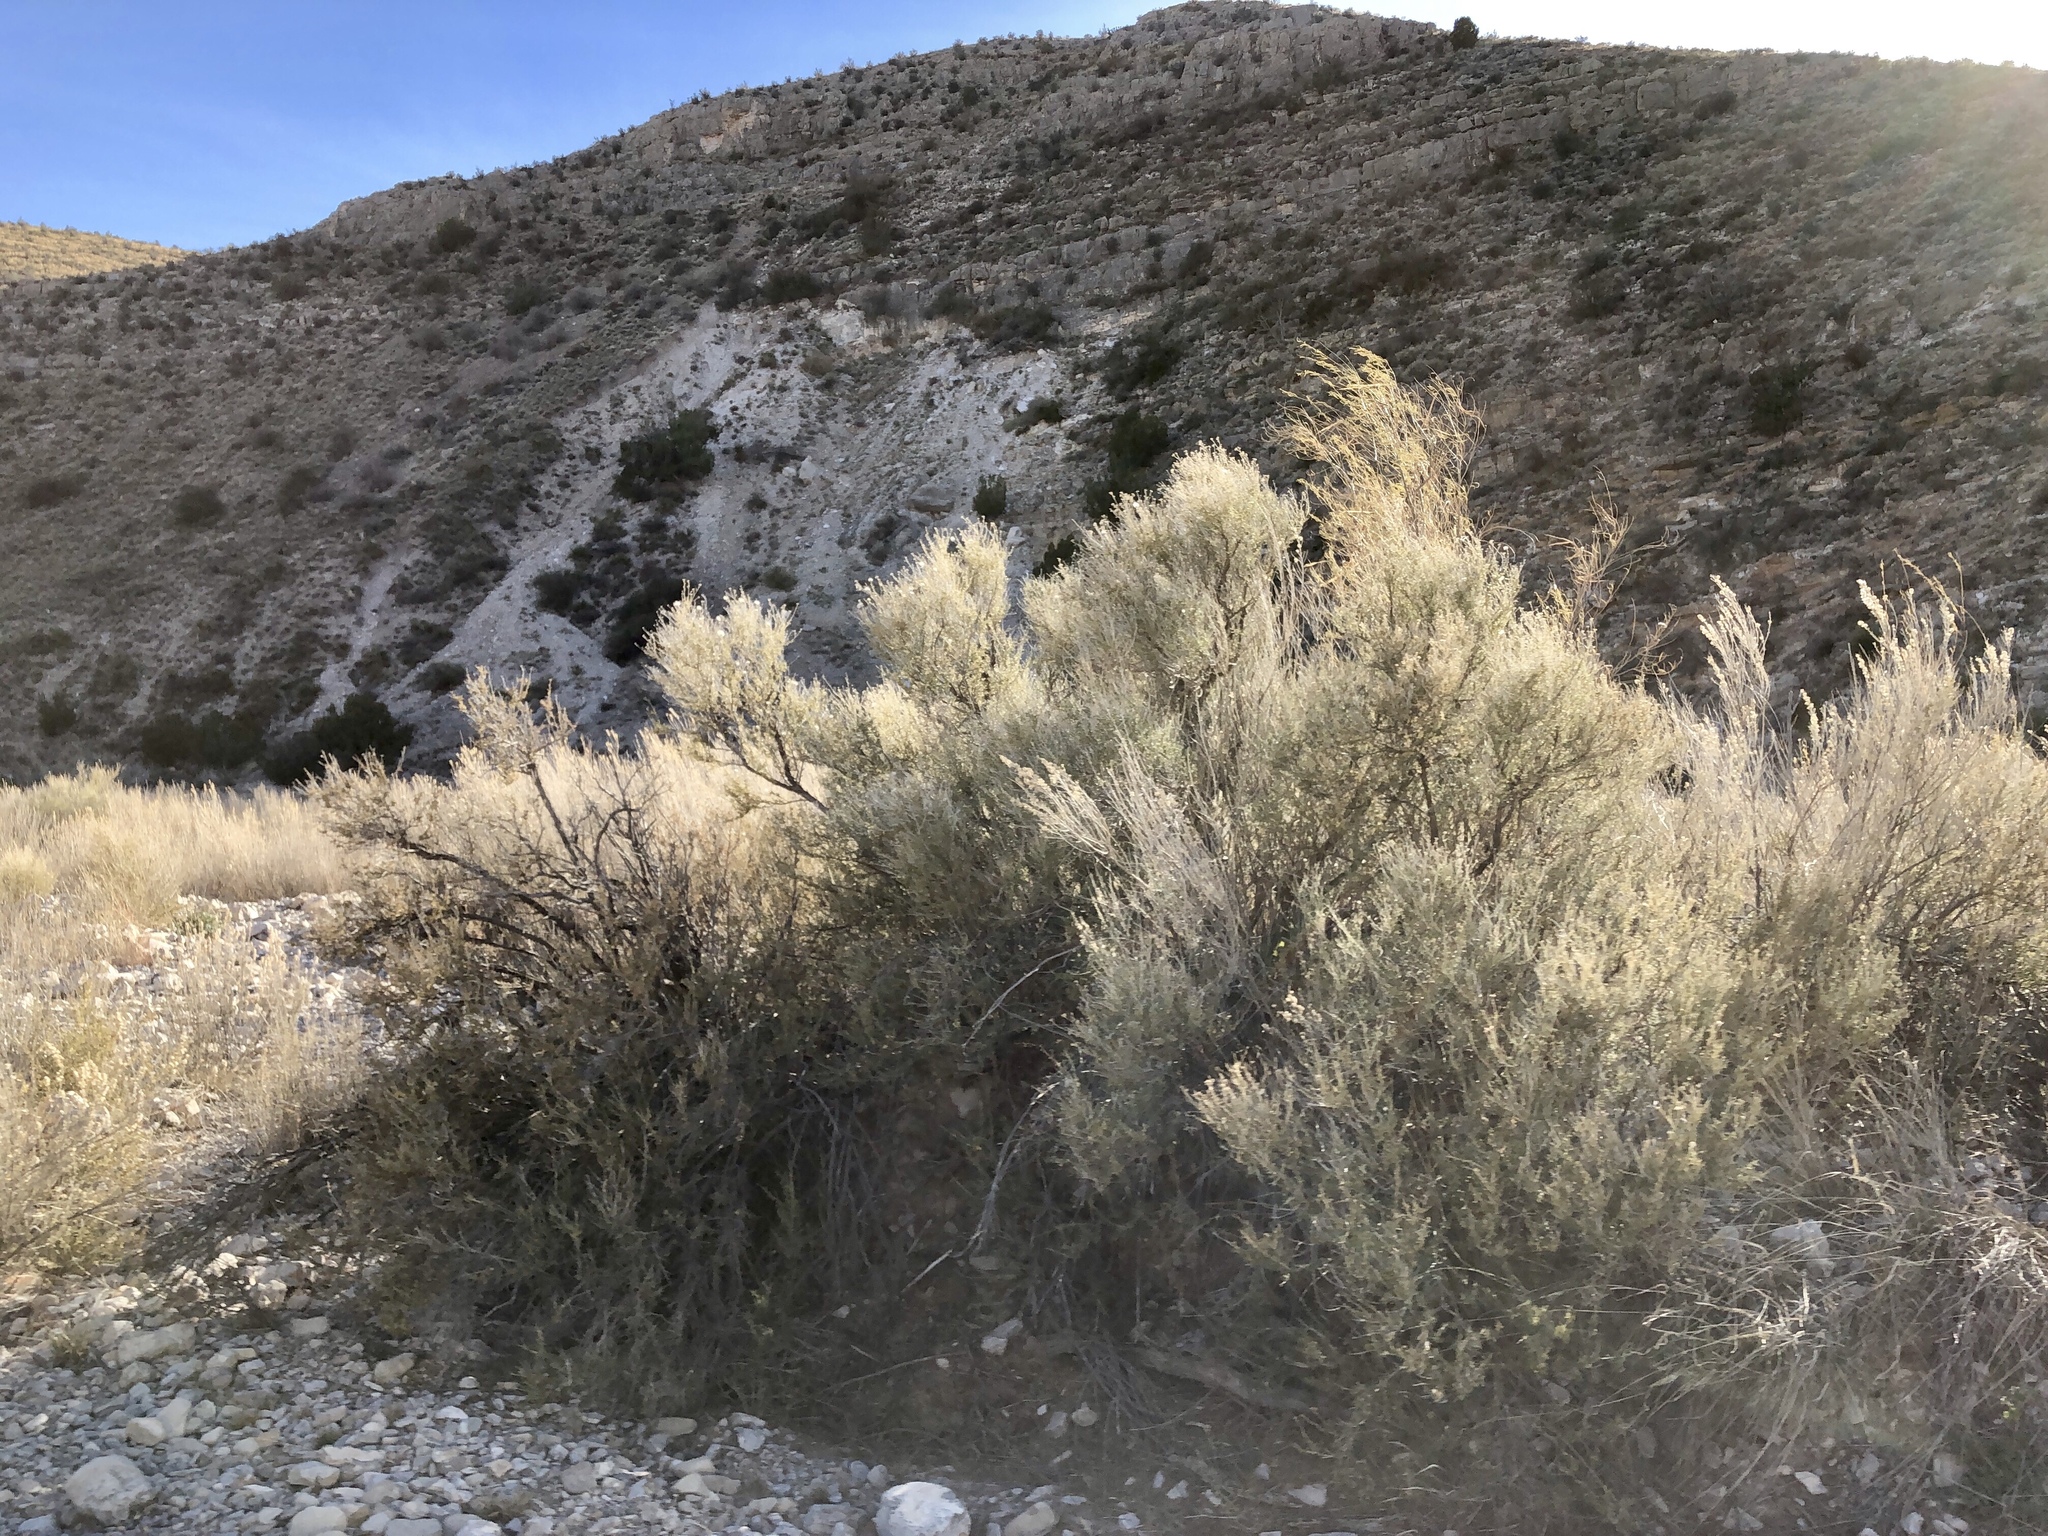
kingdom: Plantae
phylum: Tracheophyta
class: Magnoliopsida
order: Rosales
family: Rosaceae
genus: Fallugia
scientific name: Fallugia paradoxa
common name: Apache-plume
